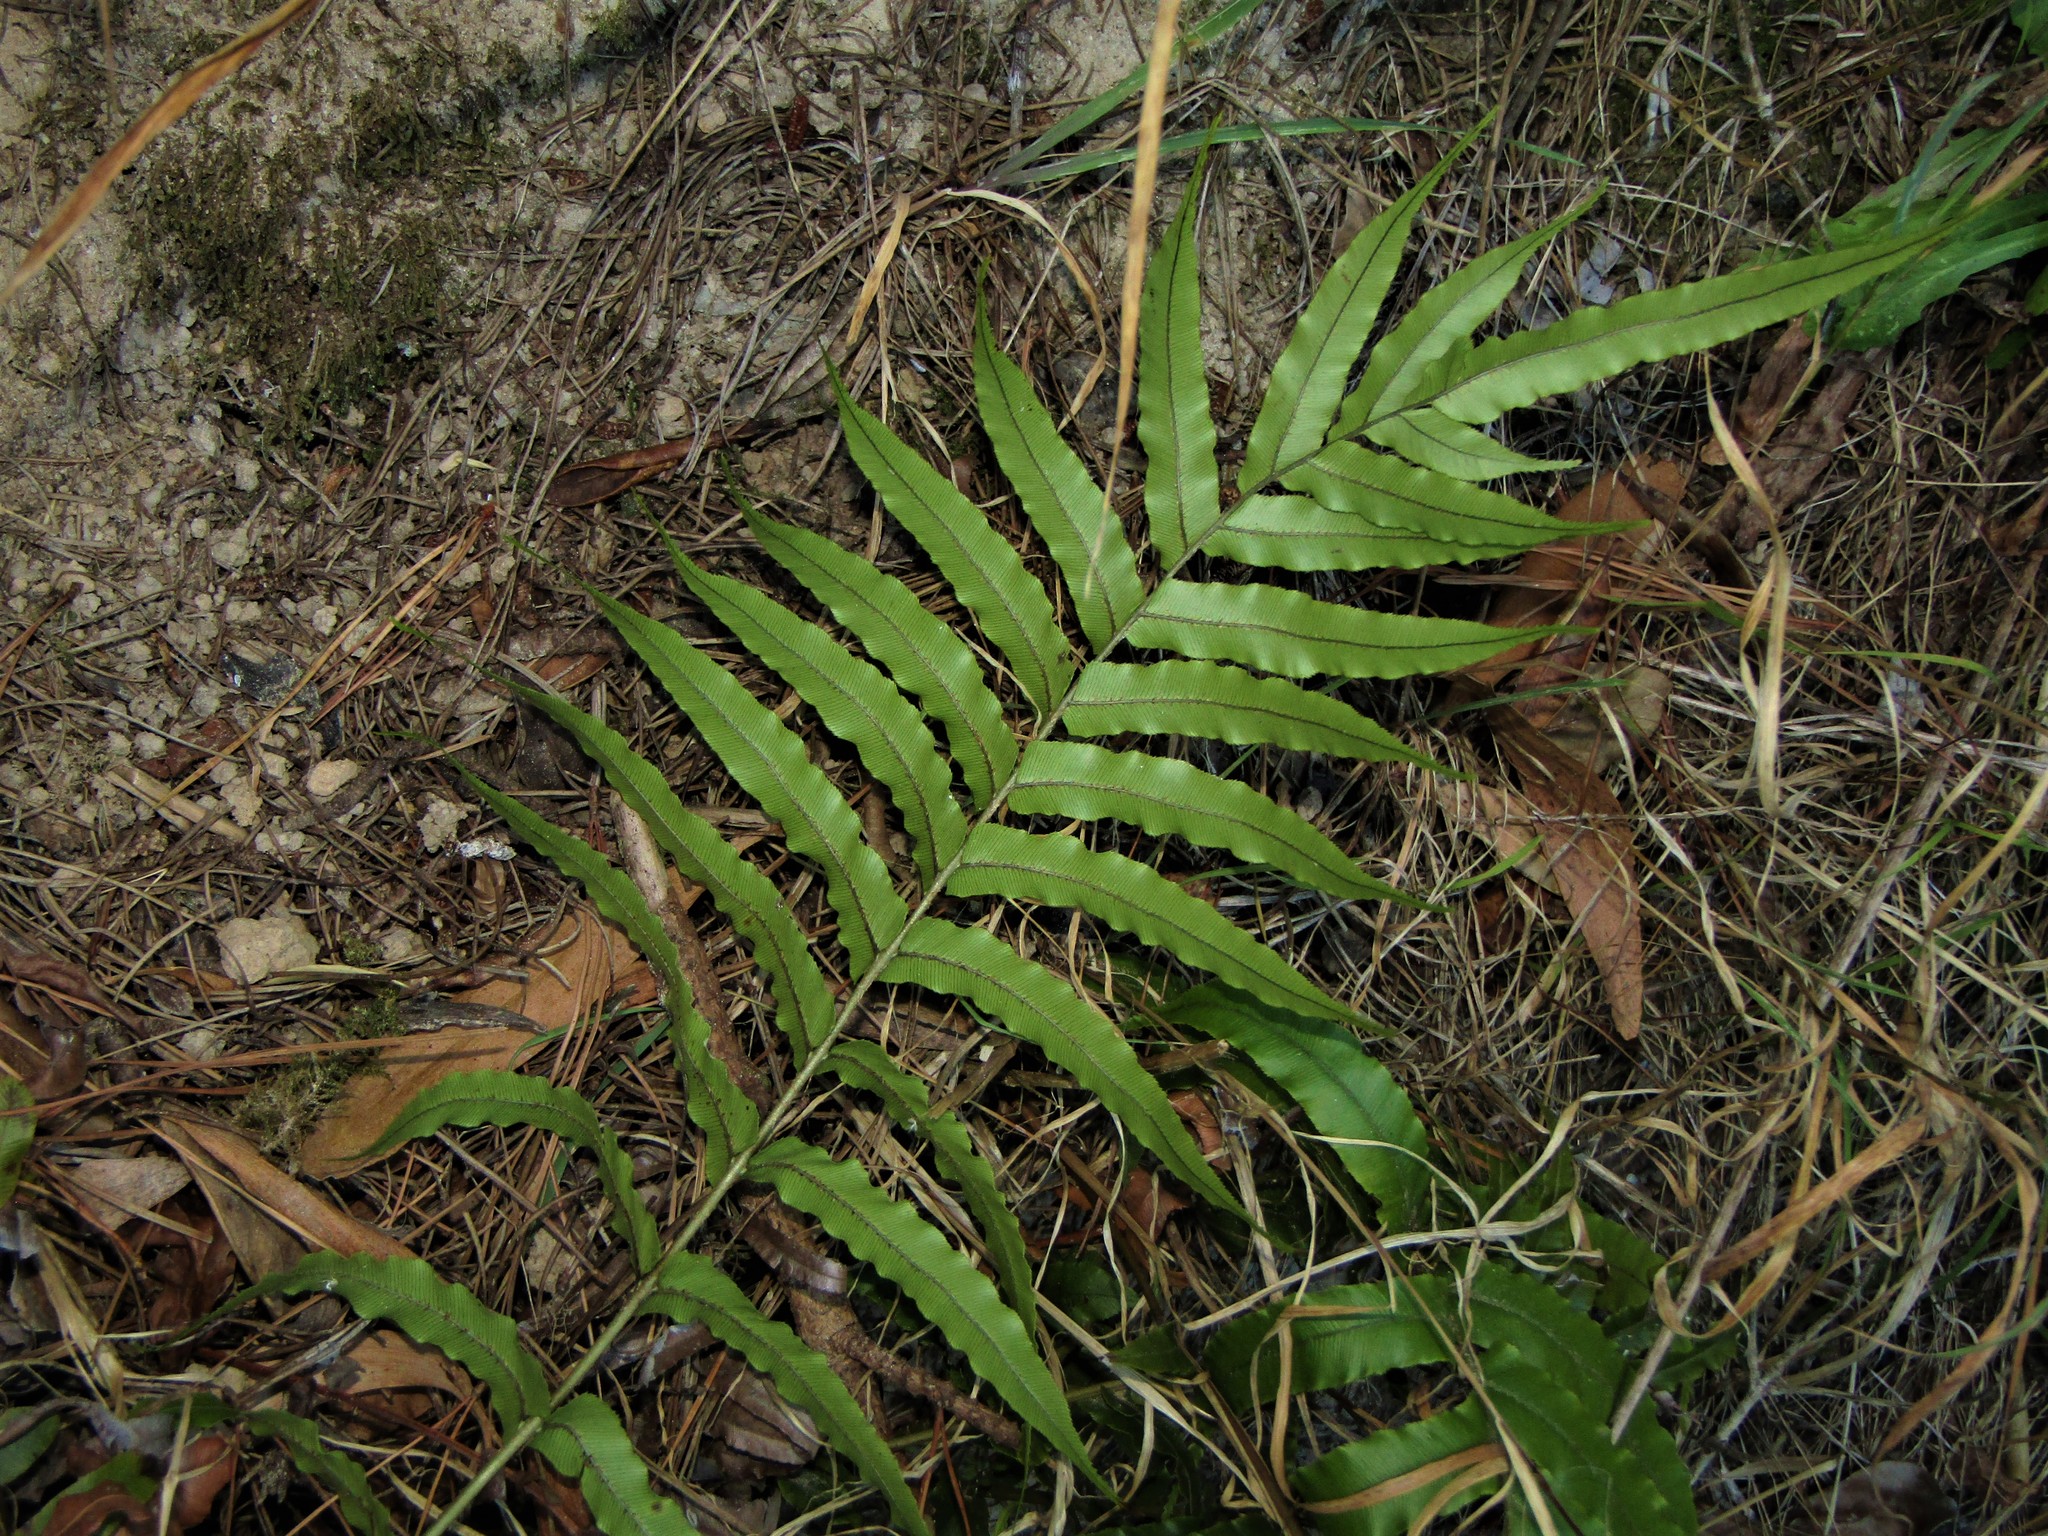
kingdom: Plantae
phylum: Tracheophyta
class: Polypodiopsida
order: Polypodiales
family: Blechnaceae
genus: Parablechnum
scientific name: Parablechnum novae-zelandiae
